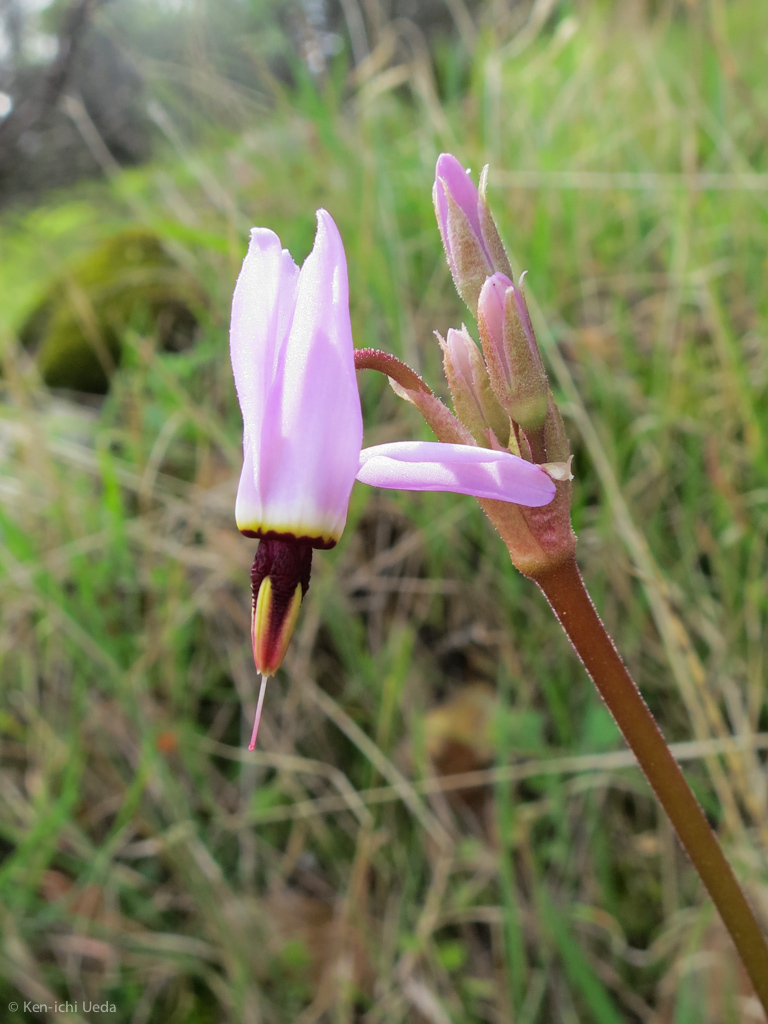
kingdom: Plantae
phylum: Tracheophyta
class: Magnoliopsida
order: Ericales
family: Primulaceae
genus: Dodecatheon
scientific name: Dodecatheon hendersonii
